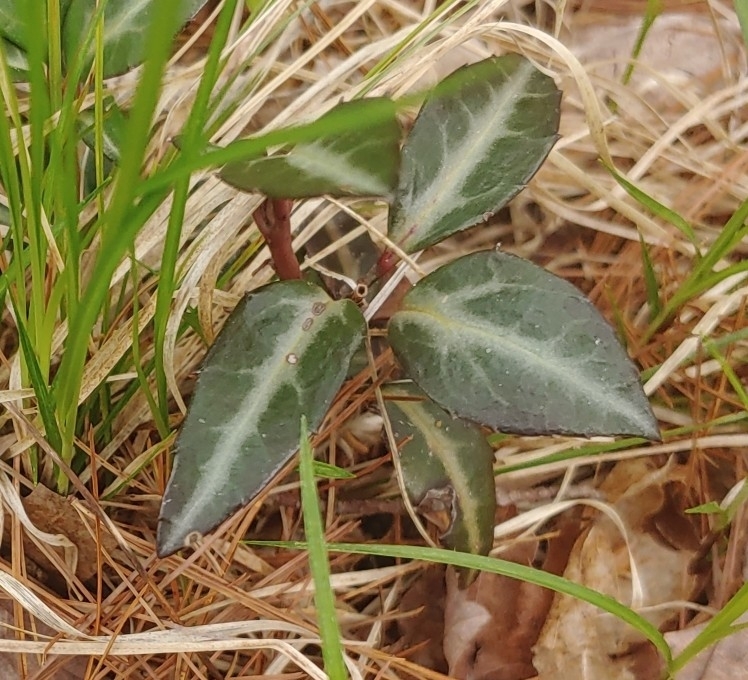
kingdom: Plantae
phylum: Tracheophyta
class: Magnoliopsida
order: Ericales
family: Ericaceae
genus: Chimaphila
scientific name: Chimaphila maculata
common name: Spotted pipsissewa
